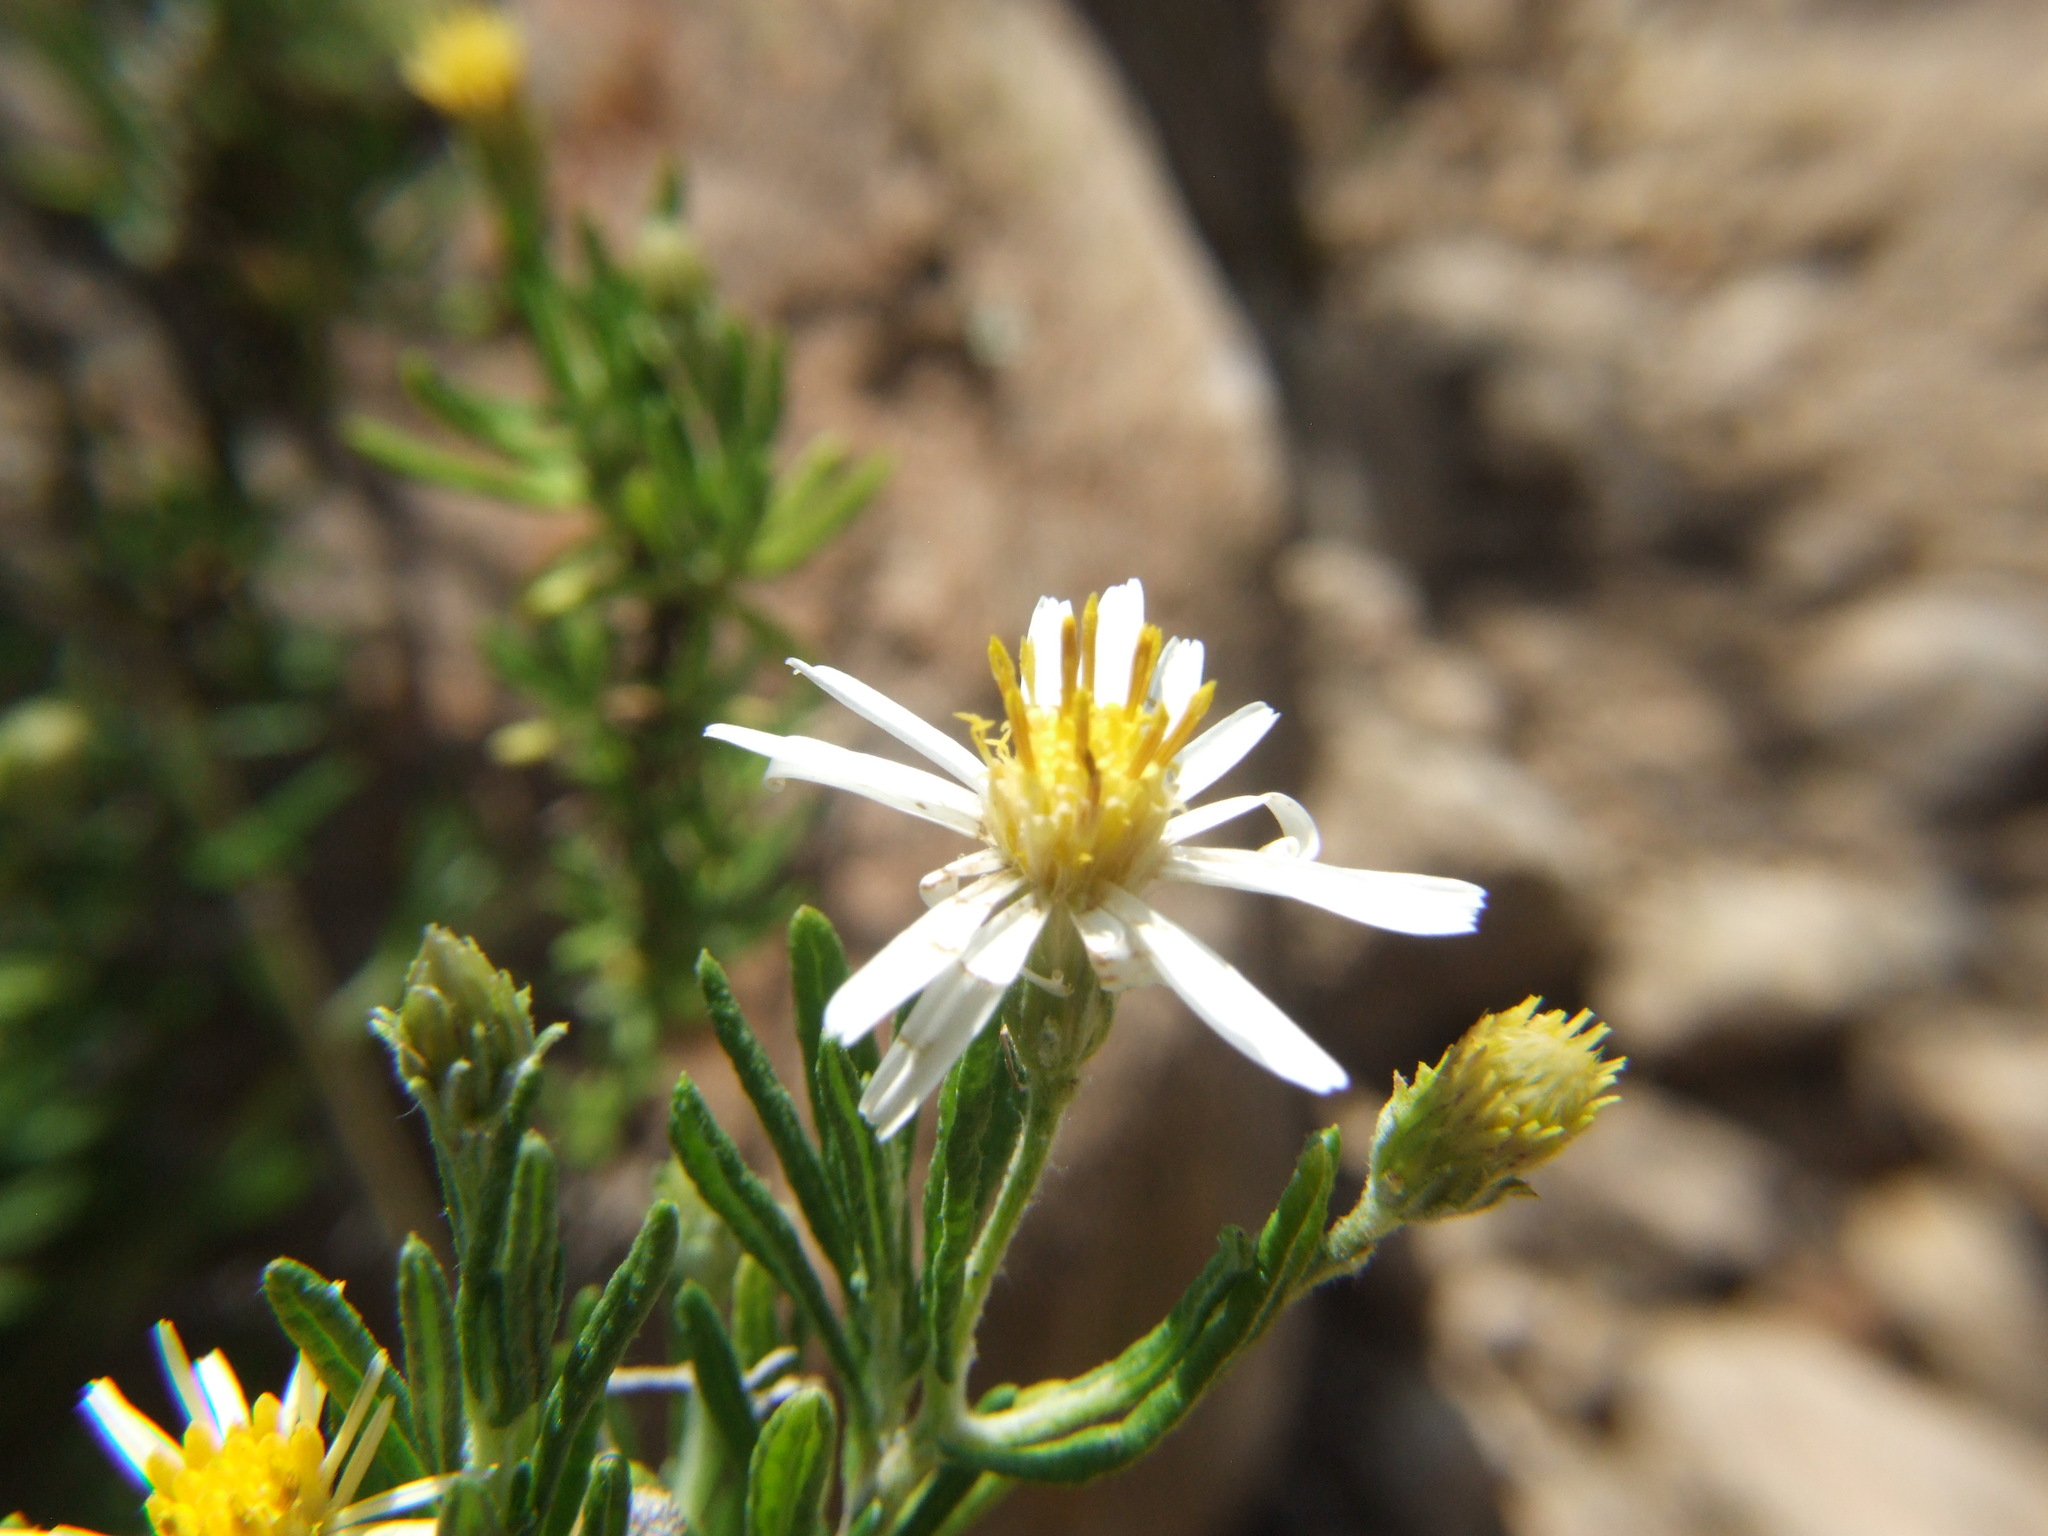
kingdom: Plantae
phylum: Tracheophyta
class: Magnoliopsida
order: Asterales
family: Asteraceae
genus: Diplostephium
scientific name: Diplostephium meyenii
